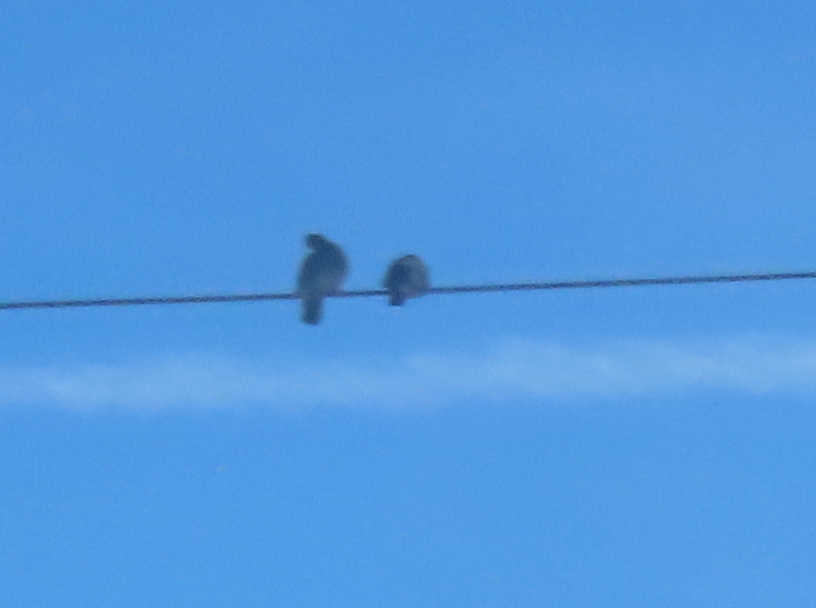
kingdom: Animalia
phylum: Chordata
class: Aves
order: Columbiformes
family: Columbidae
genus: Columba
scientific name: Columba livia
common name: Rock pigeon
